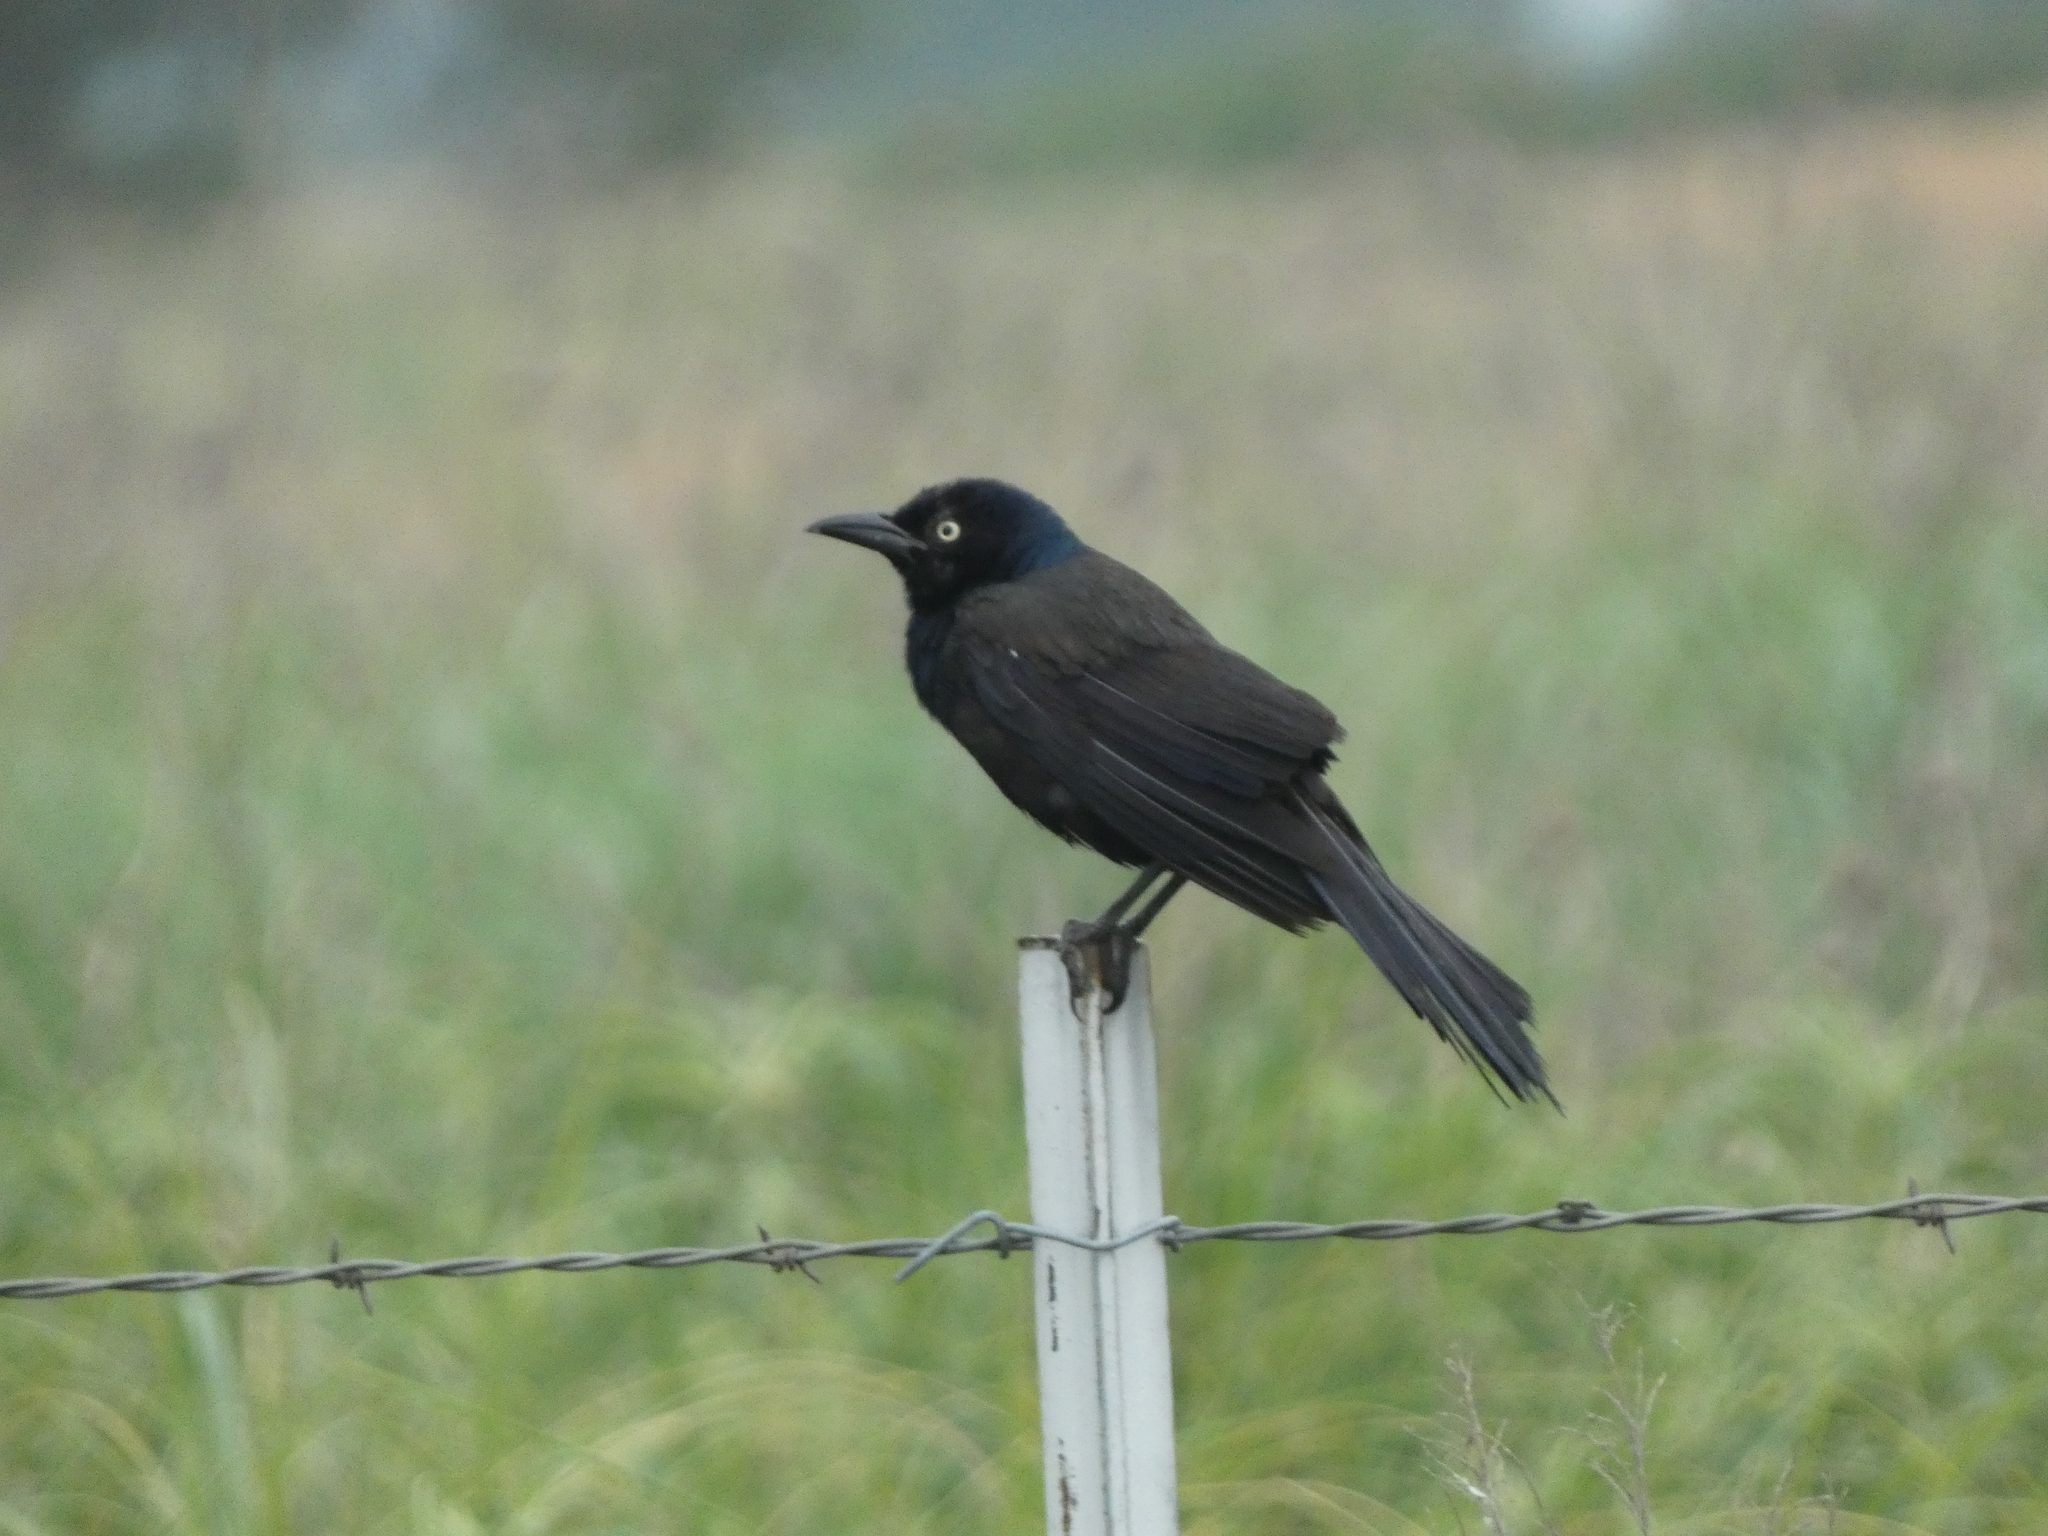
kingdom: Animalia
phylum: Chordata
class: Aves
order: Passeriformes
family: Icteridae
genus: Quiscalus
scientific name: Quiscalus quiscula
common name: Common grackle
